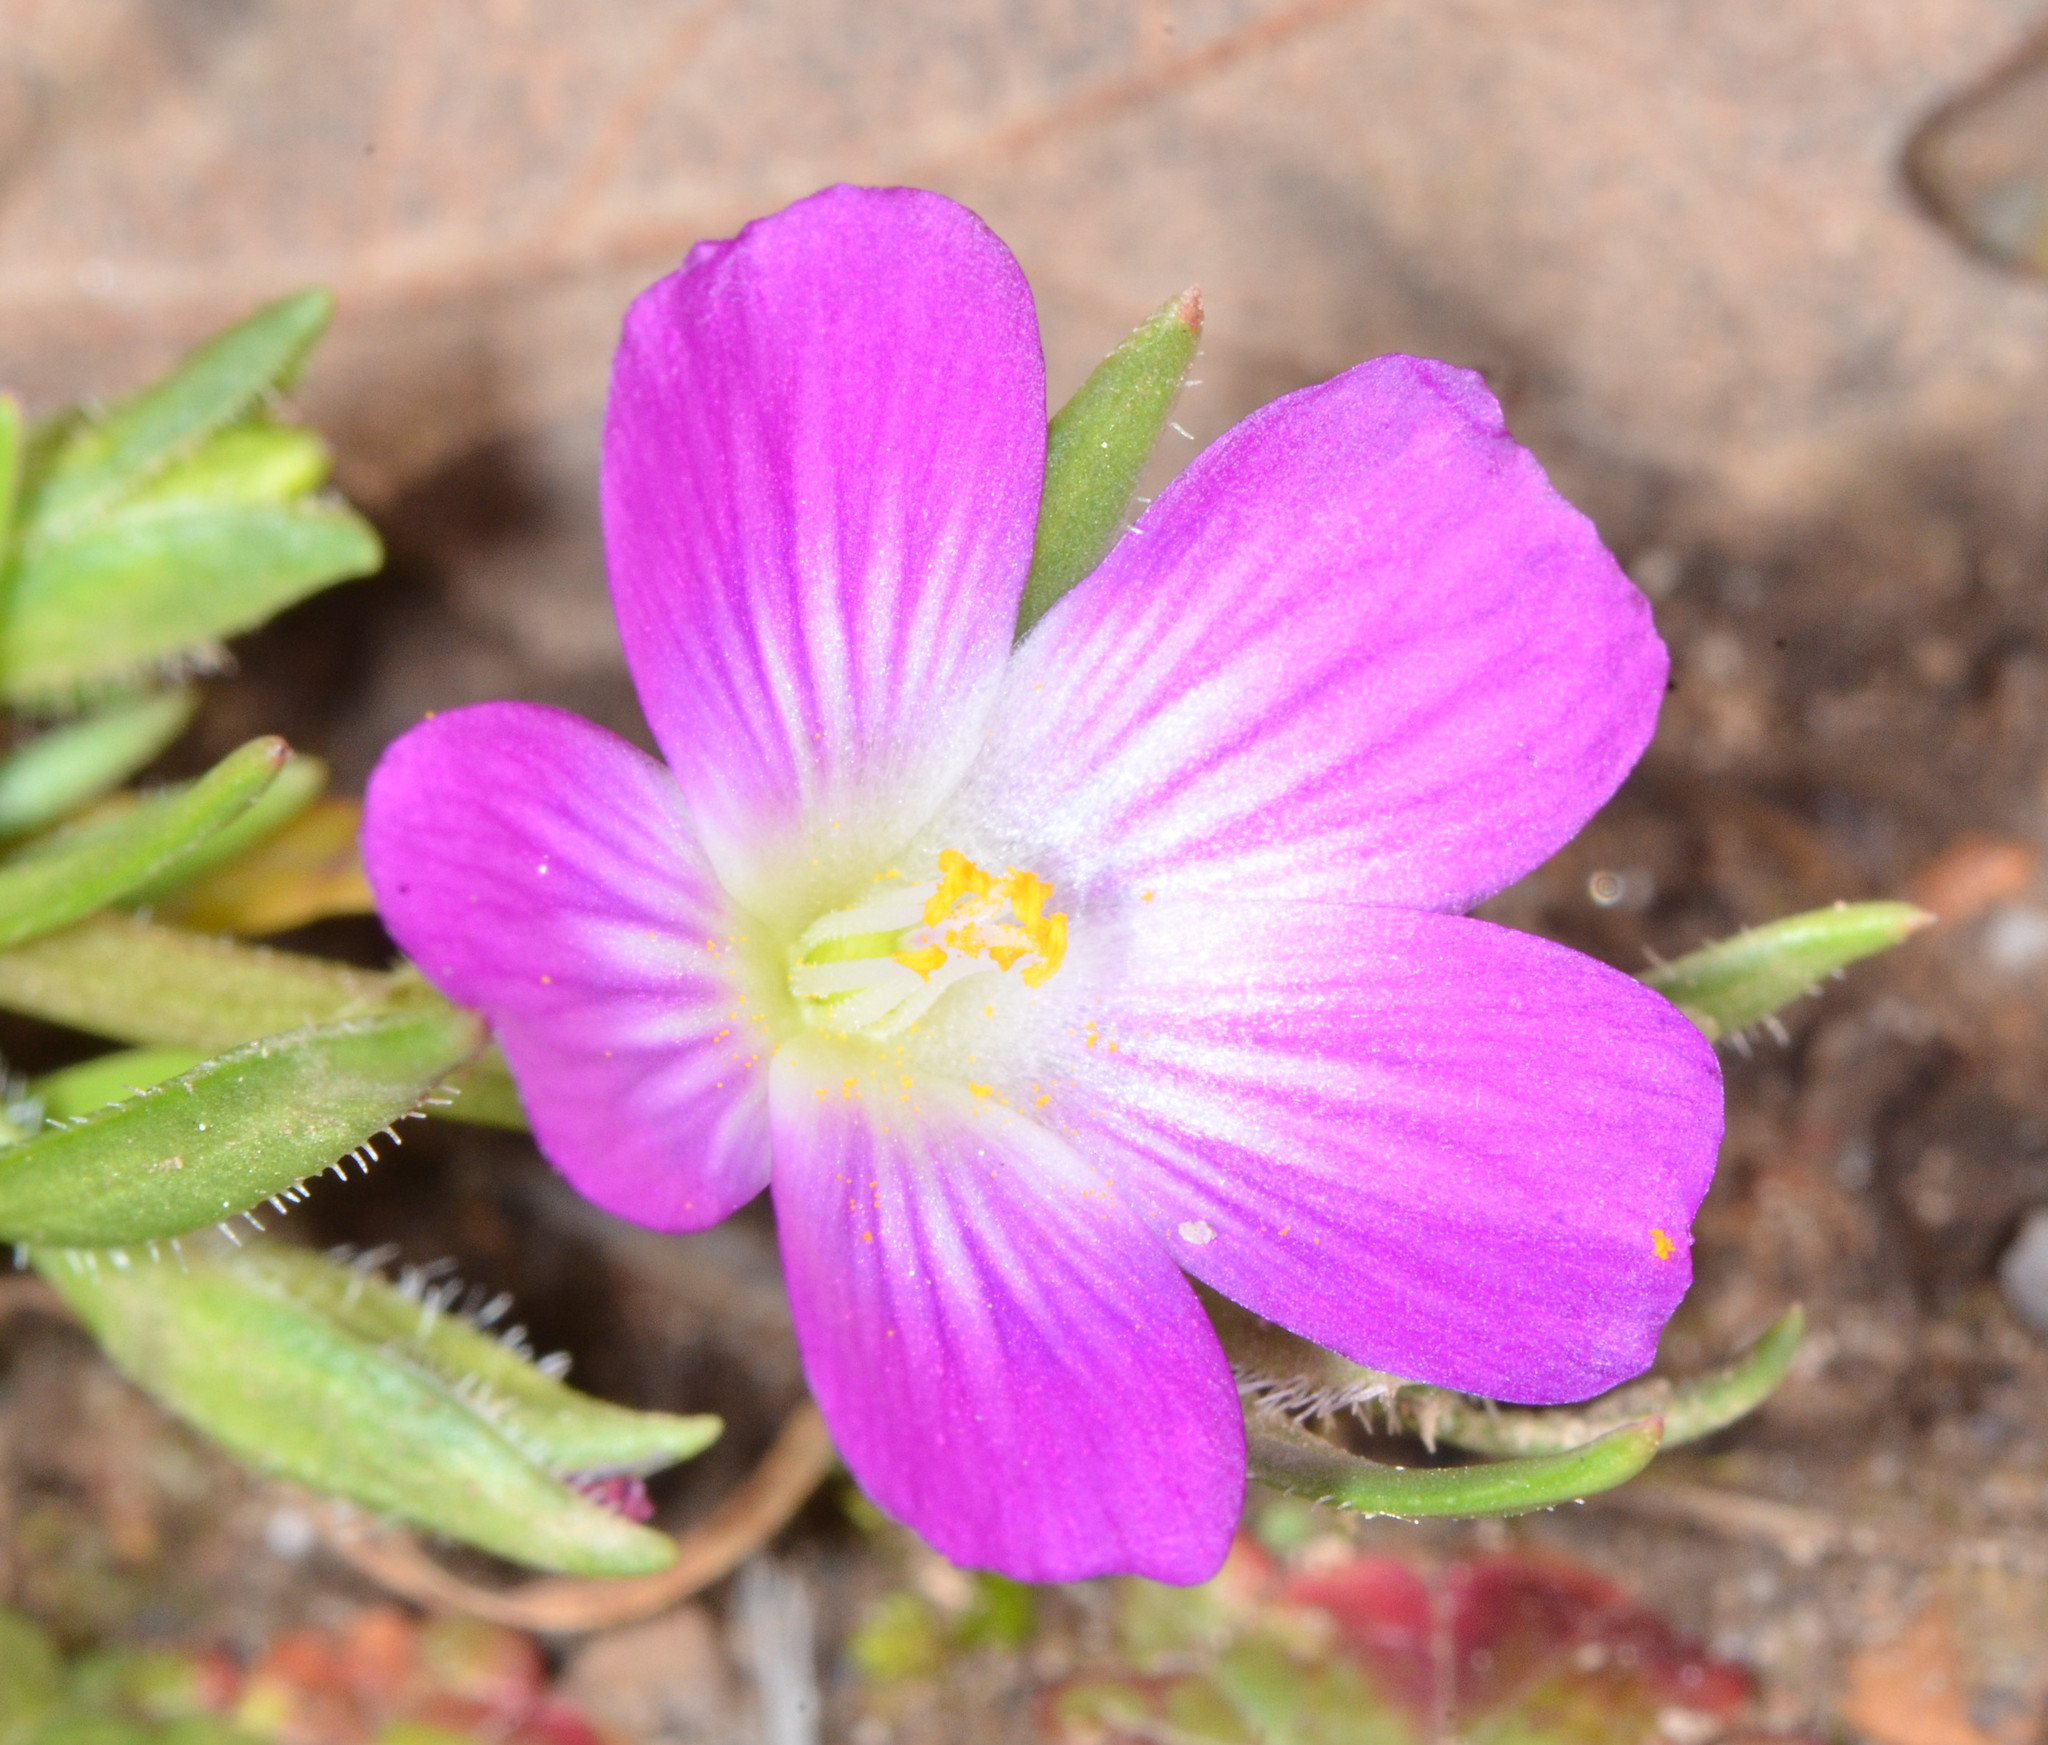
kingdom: Plantae
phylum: Tracheophyta
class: Magnoliopsida
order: Caryophyllales
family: Montiaceae
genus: Calandrinia
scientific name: Calandrinia menziesii
